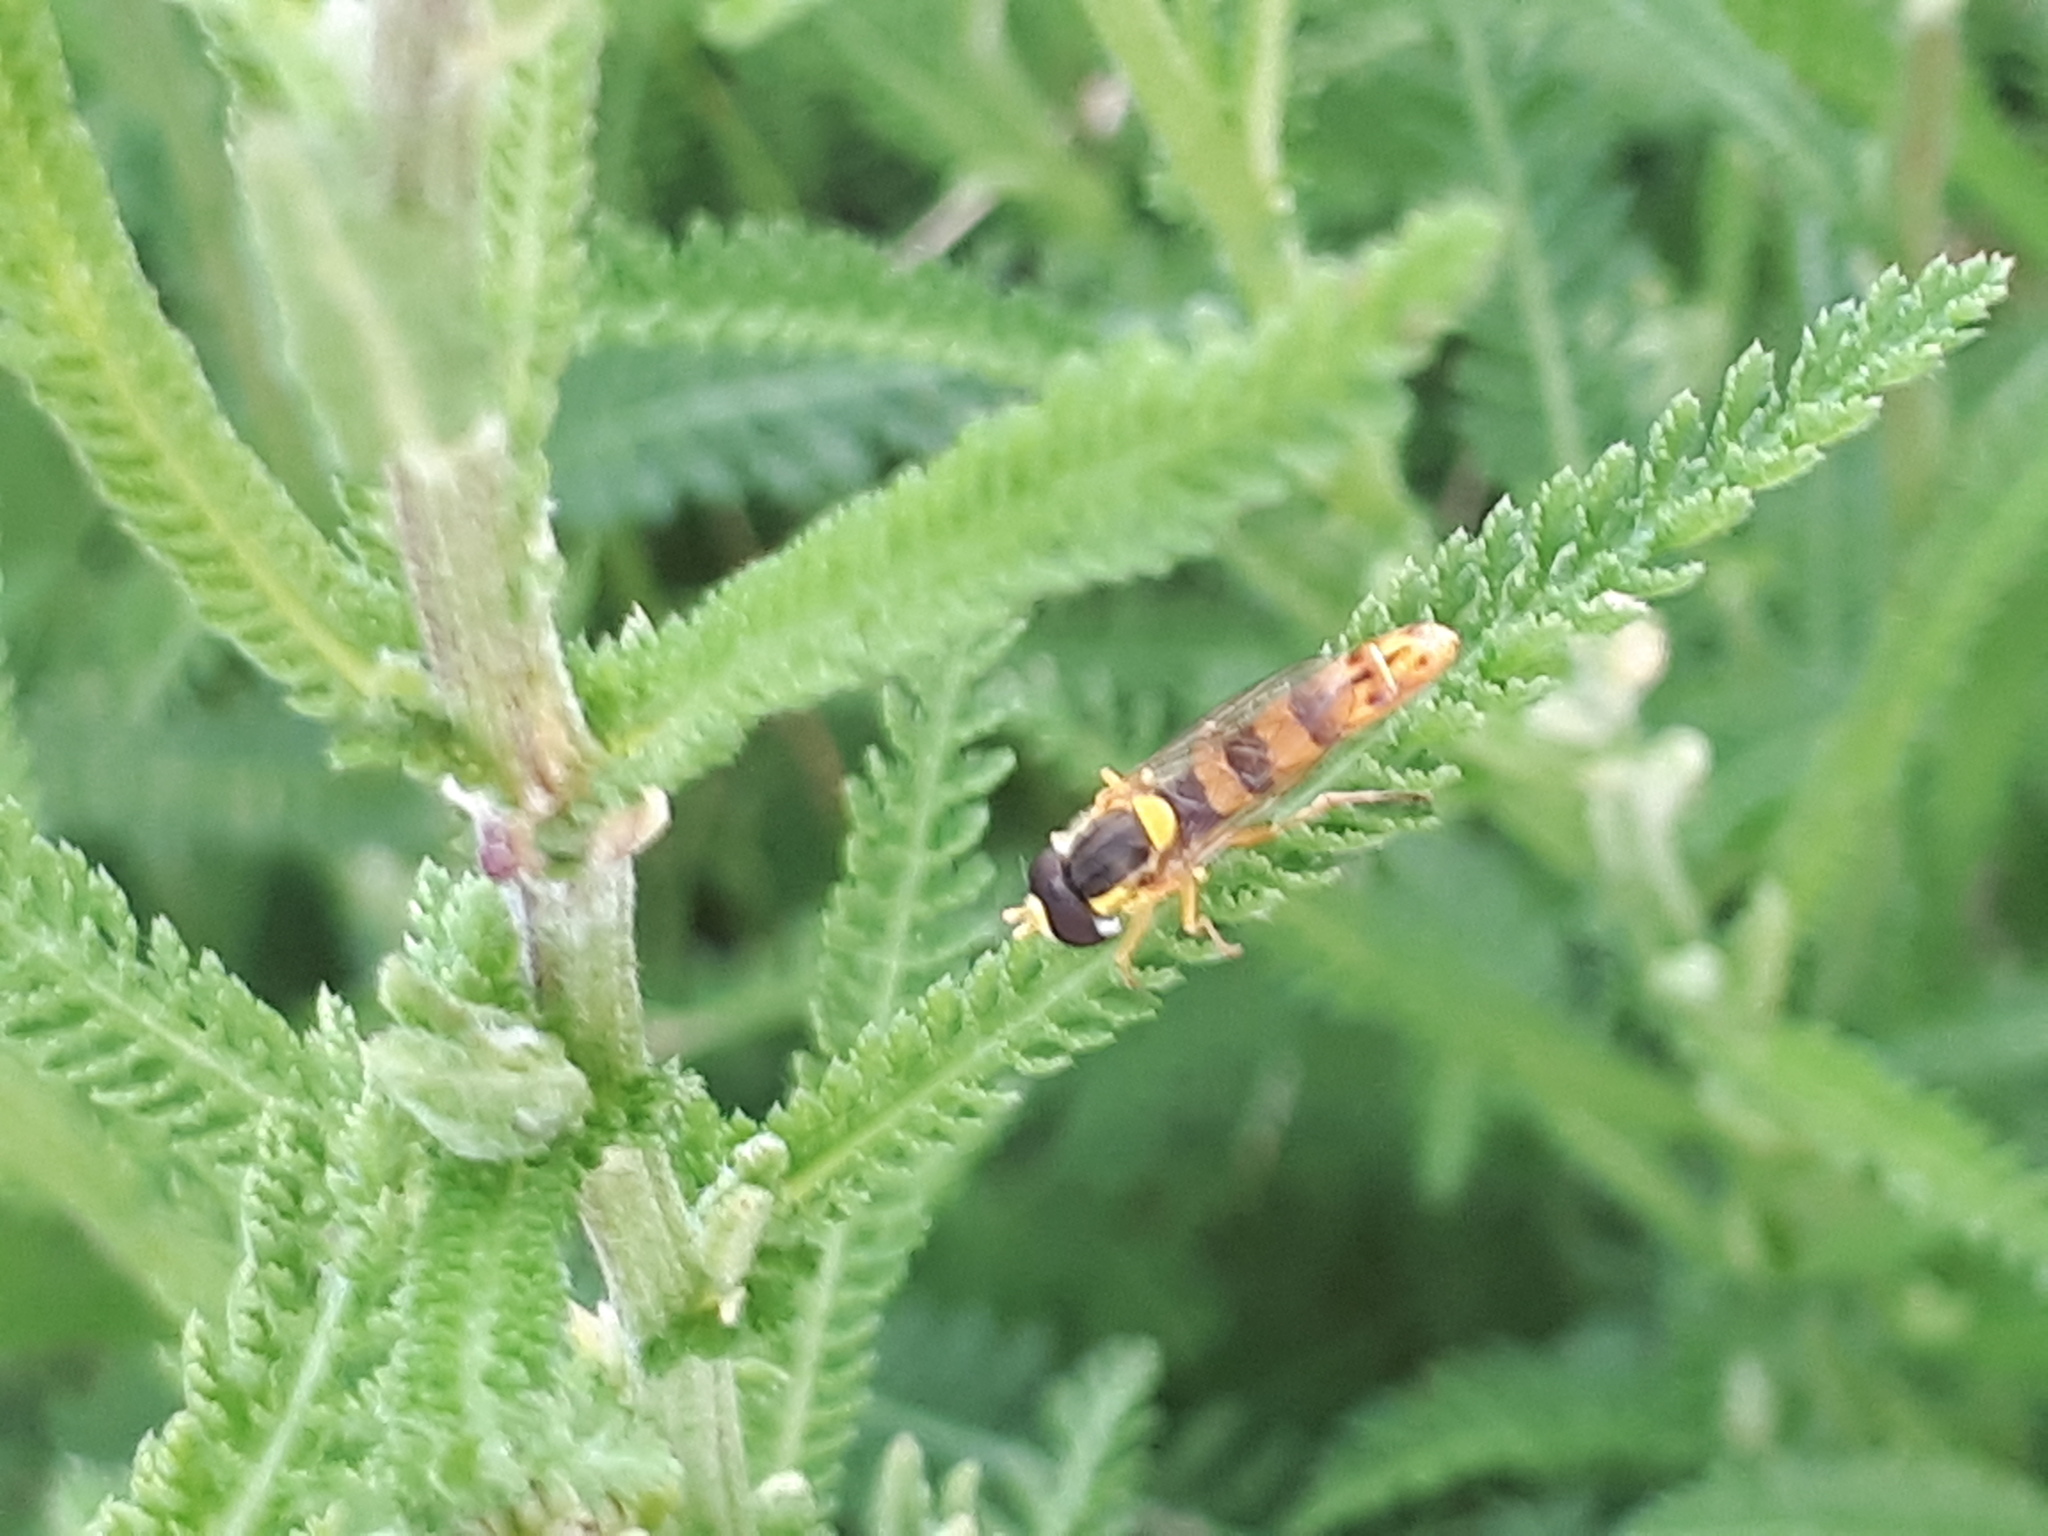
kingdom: Animalia
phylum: Arthropoda
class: Insecta
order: Diptera
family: Syrphidae
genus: Sphaerophoria
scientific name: Sphaerophoria scripta
